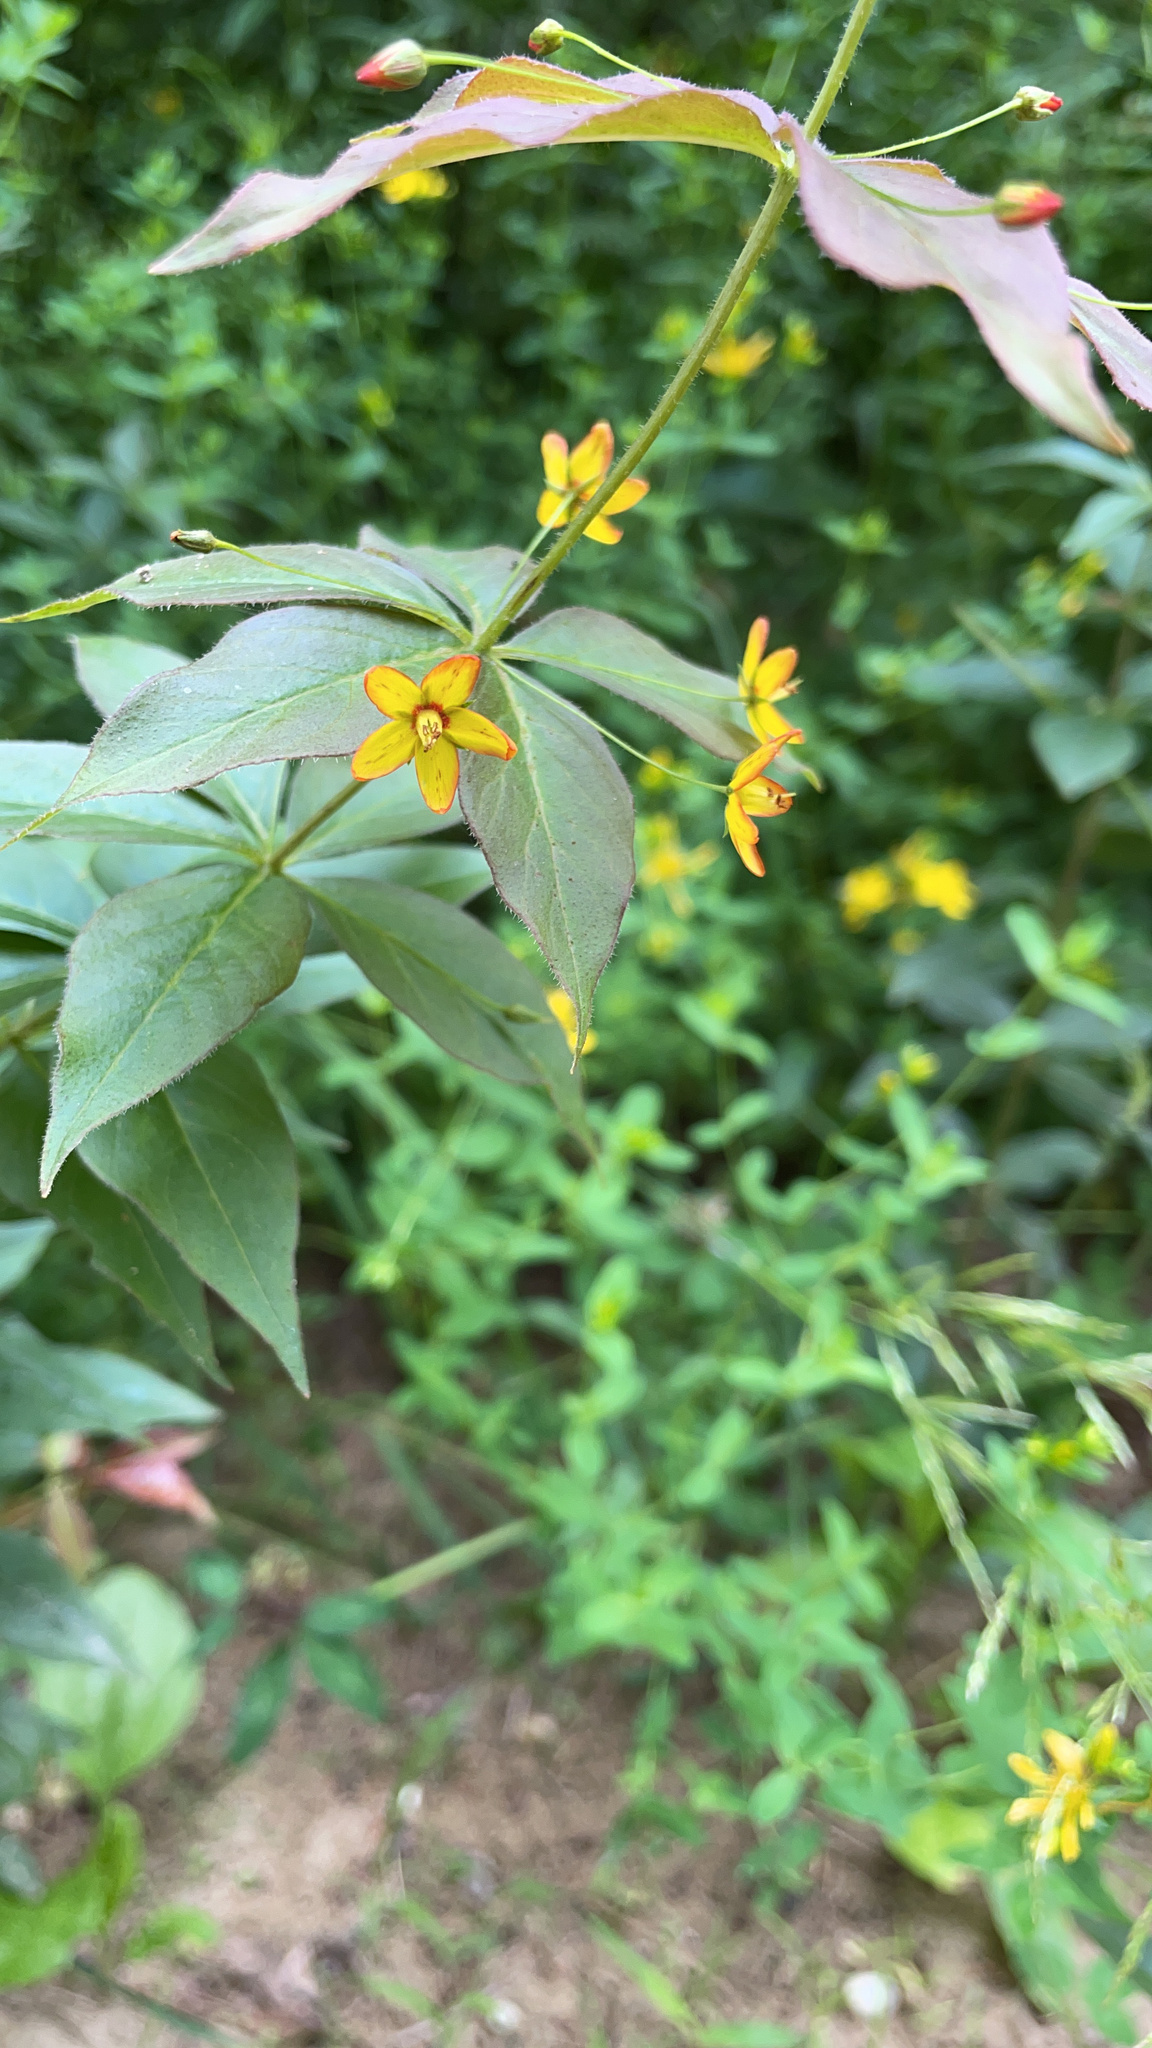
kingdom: Plantae
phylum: Tracheophyta
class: Magnoliopsida
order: Ericales
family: Primulaceae
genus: Lysimachia
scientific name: Lysimachia quadrifolia
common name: Whorled loosestrife
